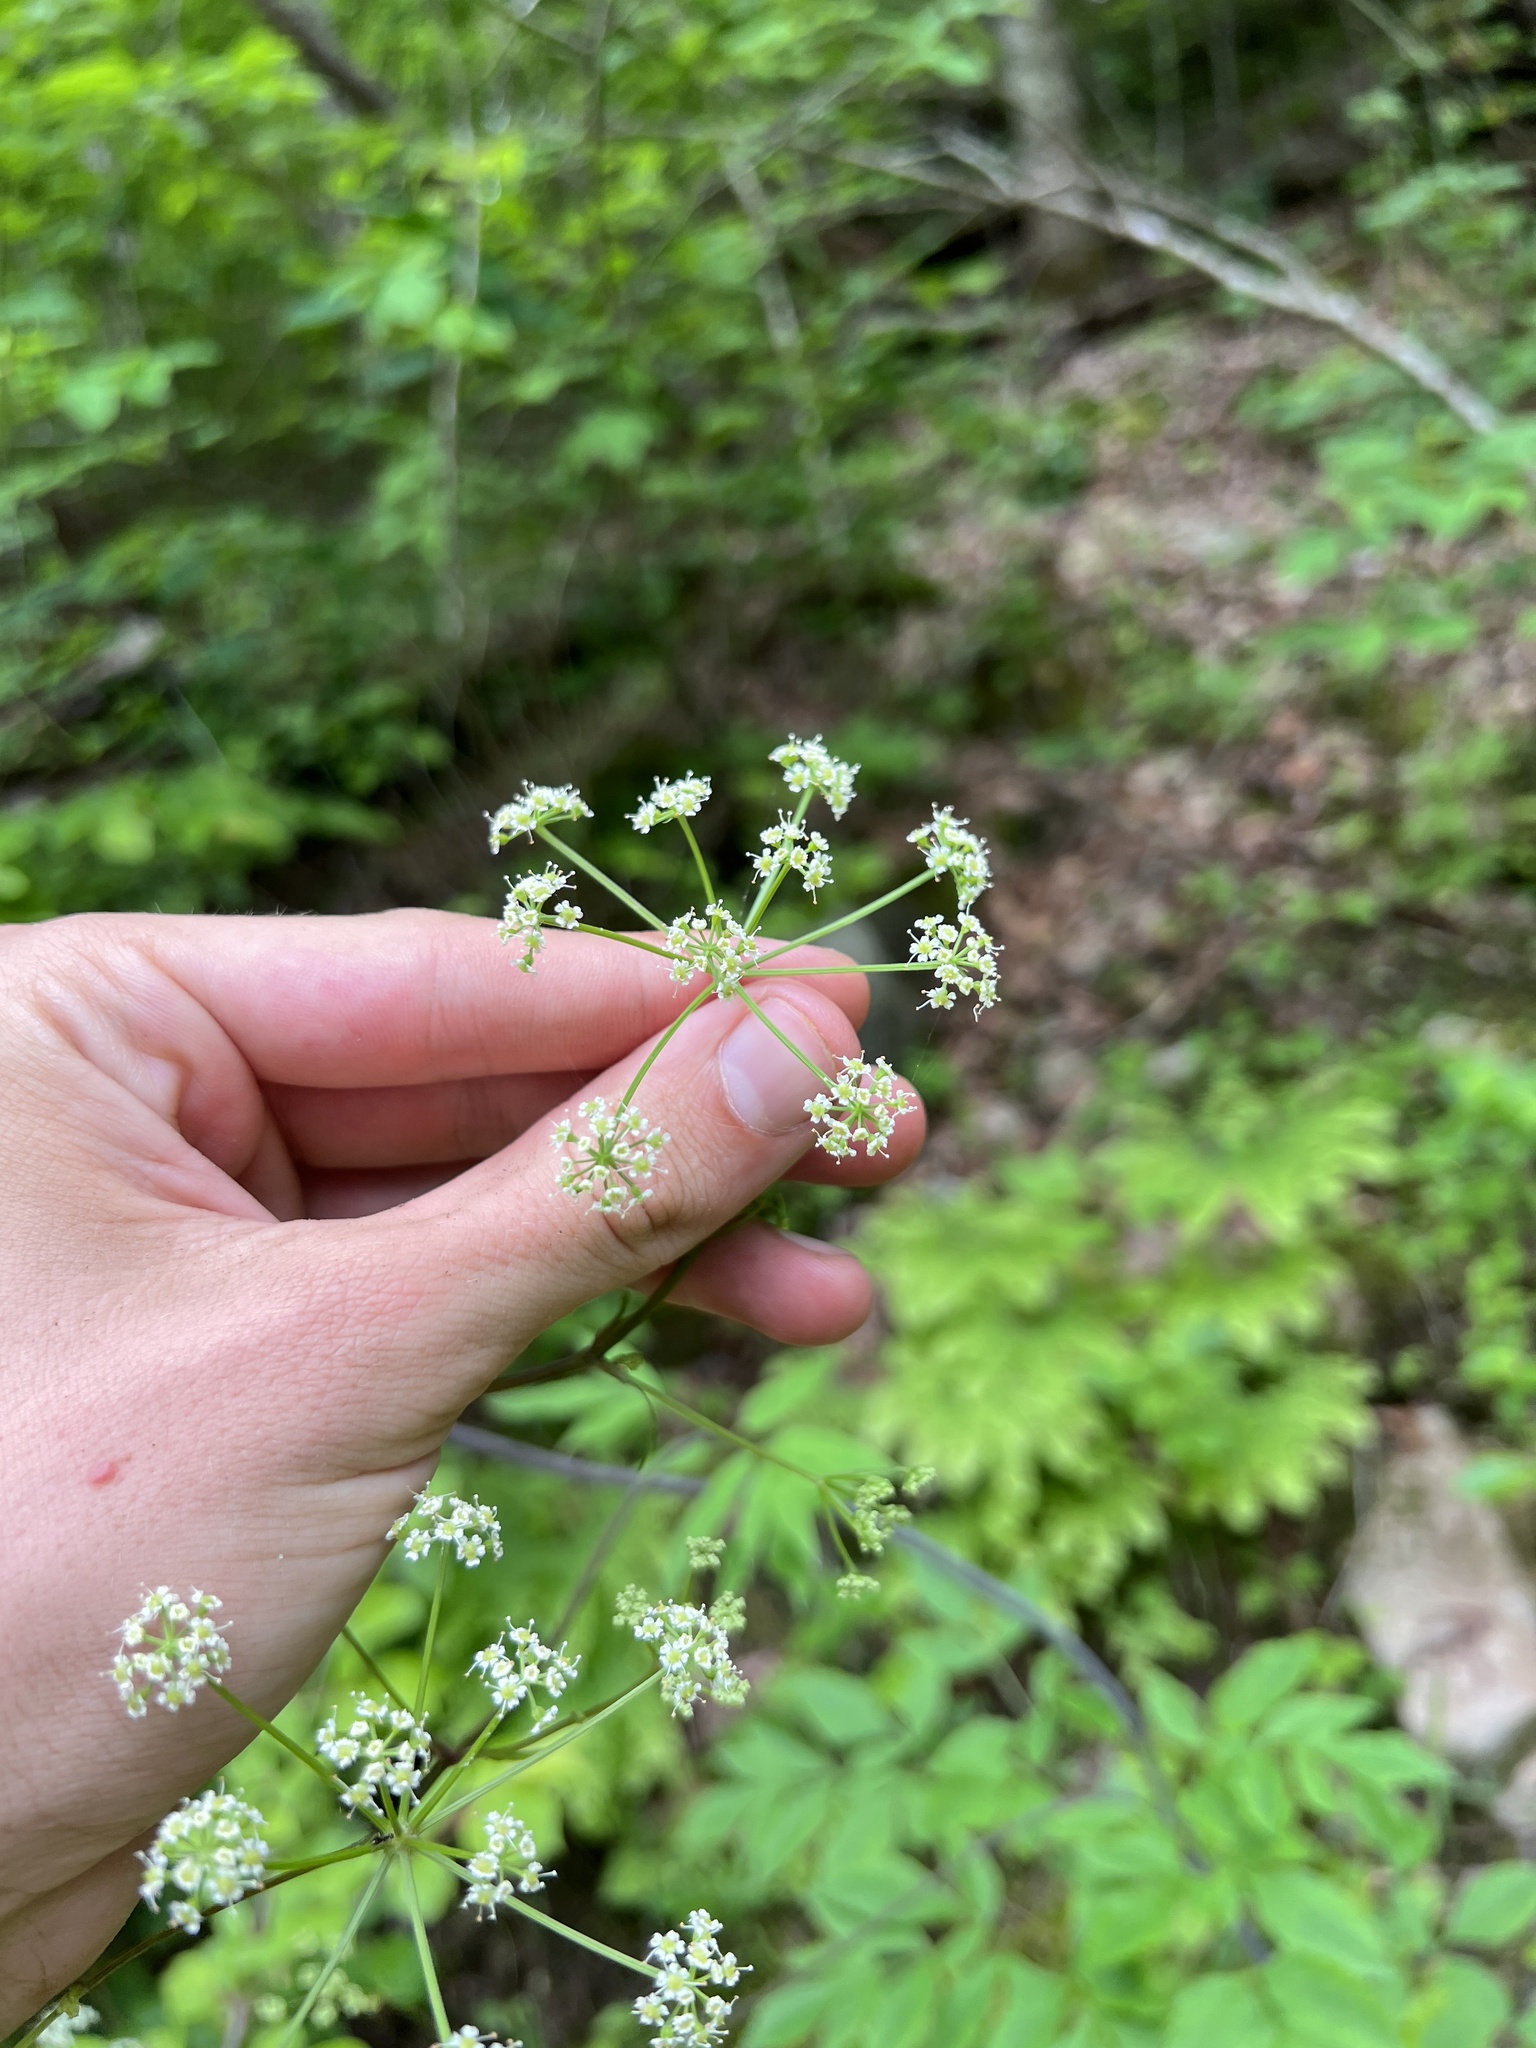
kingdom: Plantae
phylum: Tracheophyta
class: Magnoliopsida
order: Apiales
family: Apiaceae
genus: Ligusticum
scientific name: Ligusticum canadense
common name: American lovage
